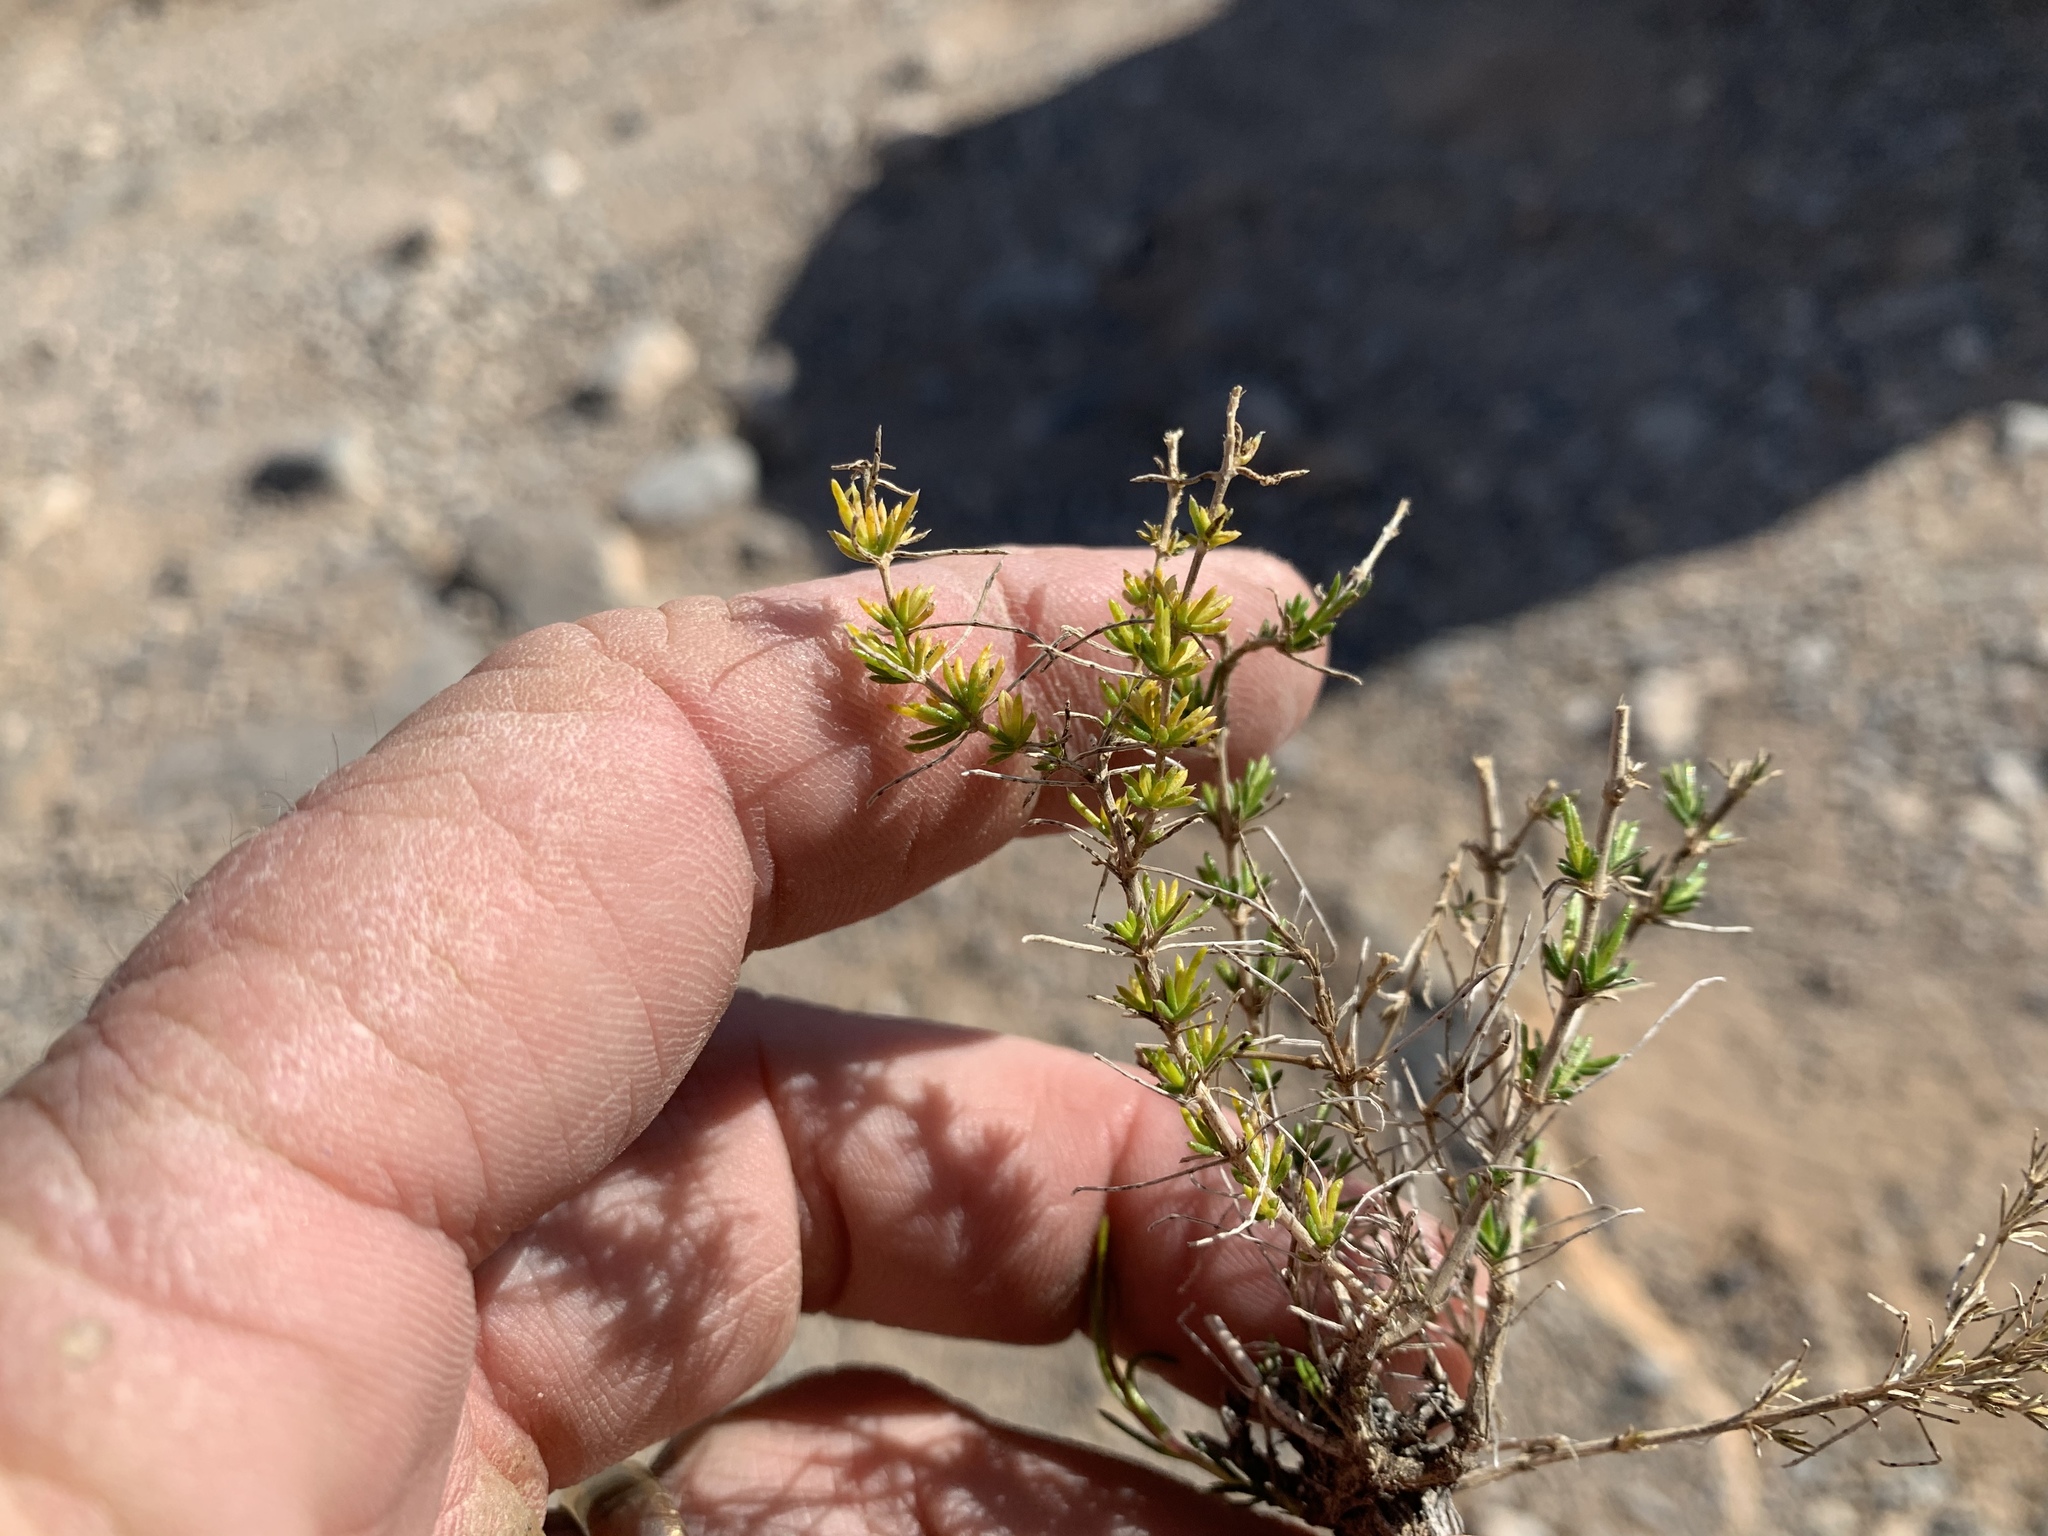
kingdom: Plantae
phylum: Tracheophyta
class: Magnoliopsida
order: Asterales
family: Asteraceae
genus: Thymophylla
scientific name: Thymophylla acerosa
